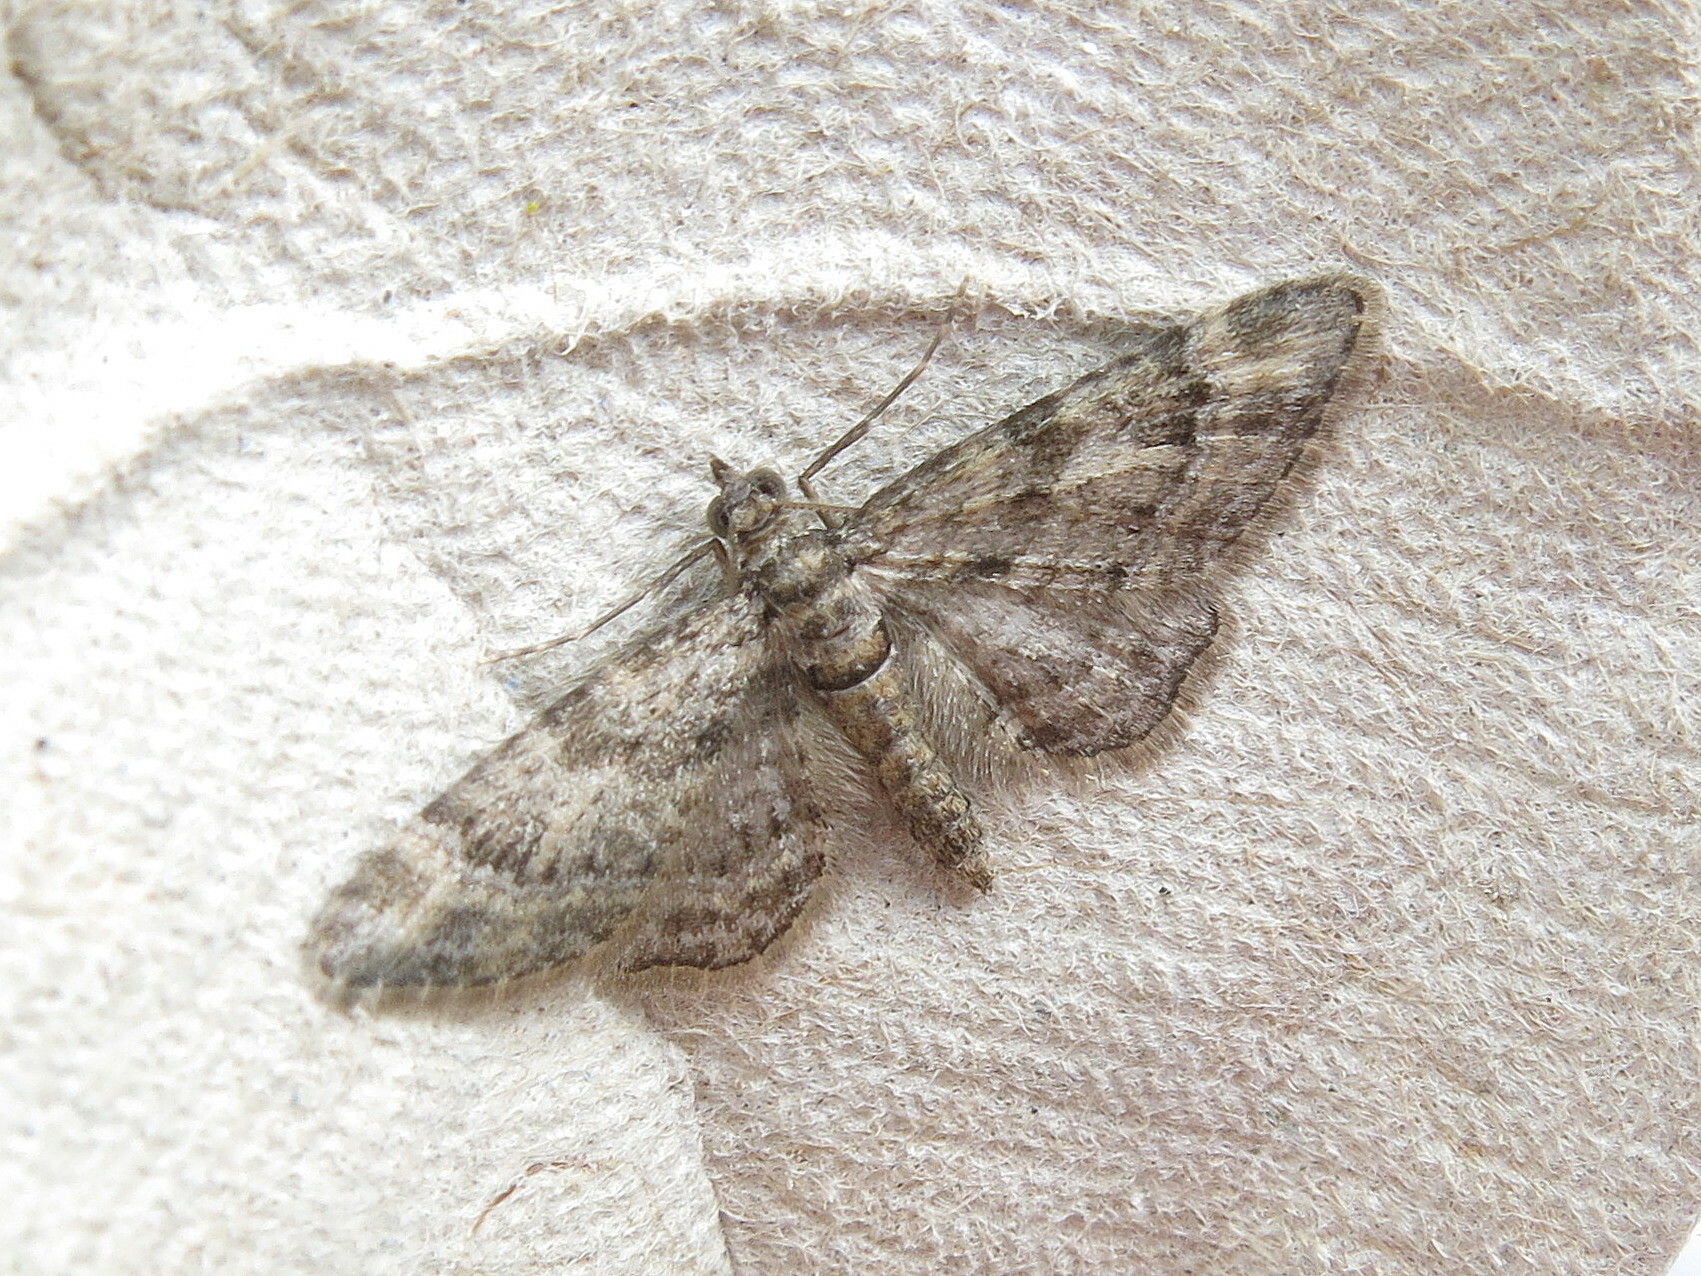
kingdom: Animalia
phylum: Arthropoda
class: Insecta
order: Lepidoptera
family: Geometridae
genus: Gymnoscelis
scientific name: Gymnoscelis rufifasciata
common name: Double-striped pug
